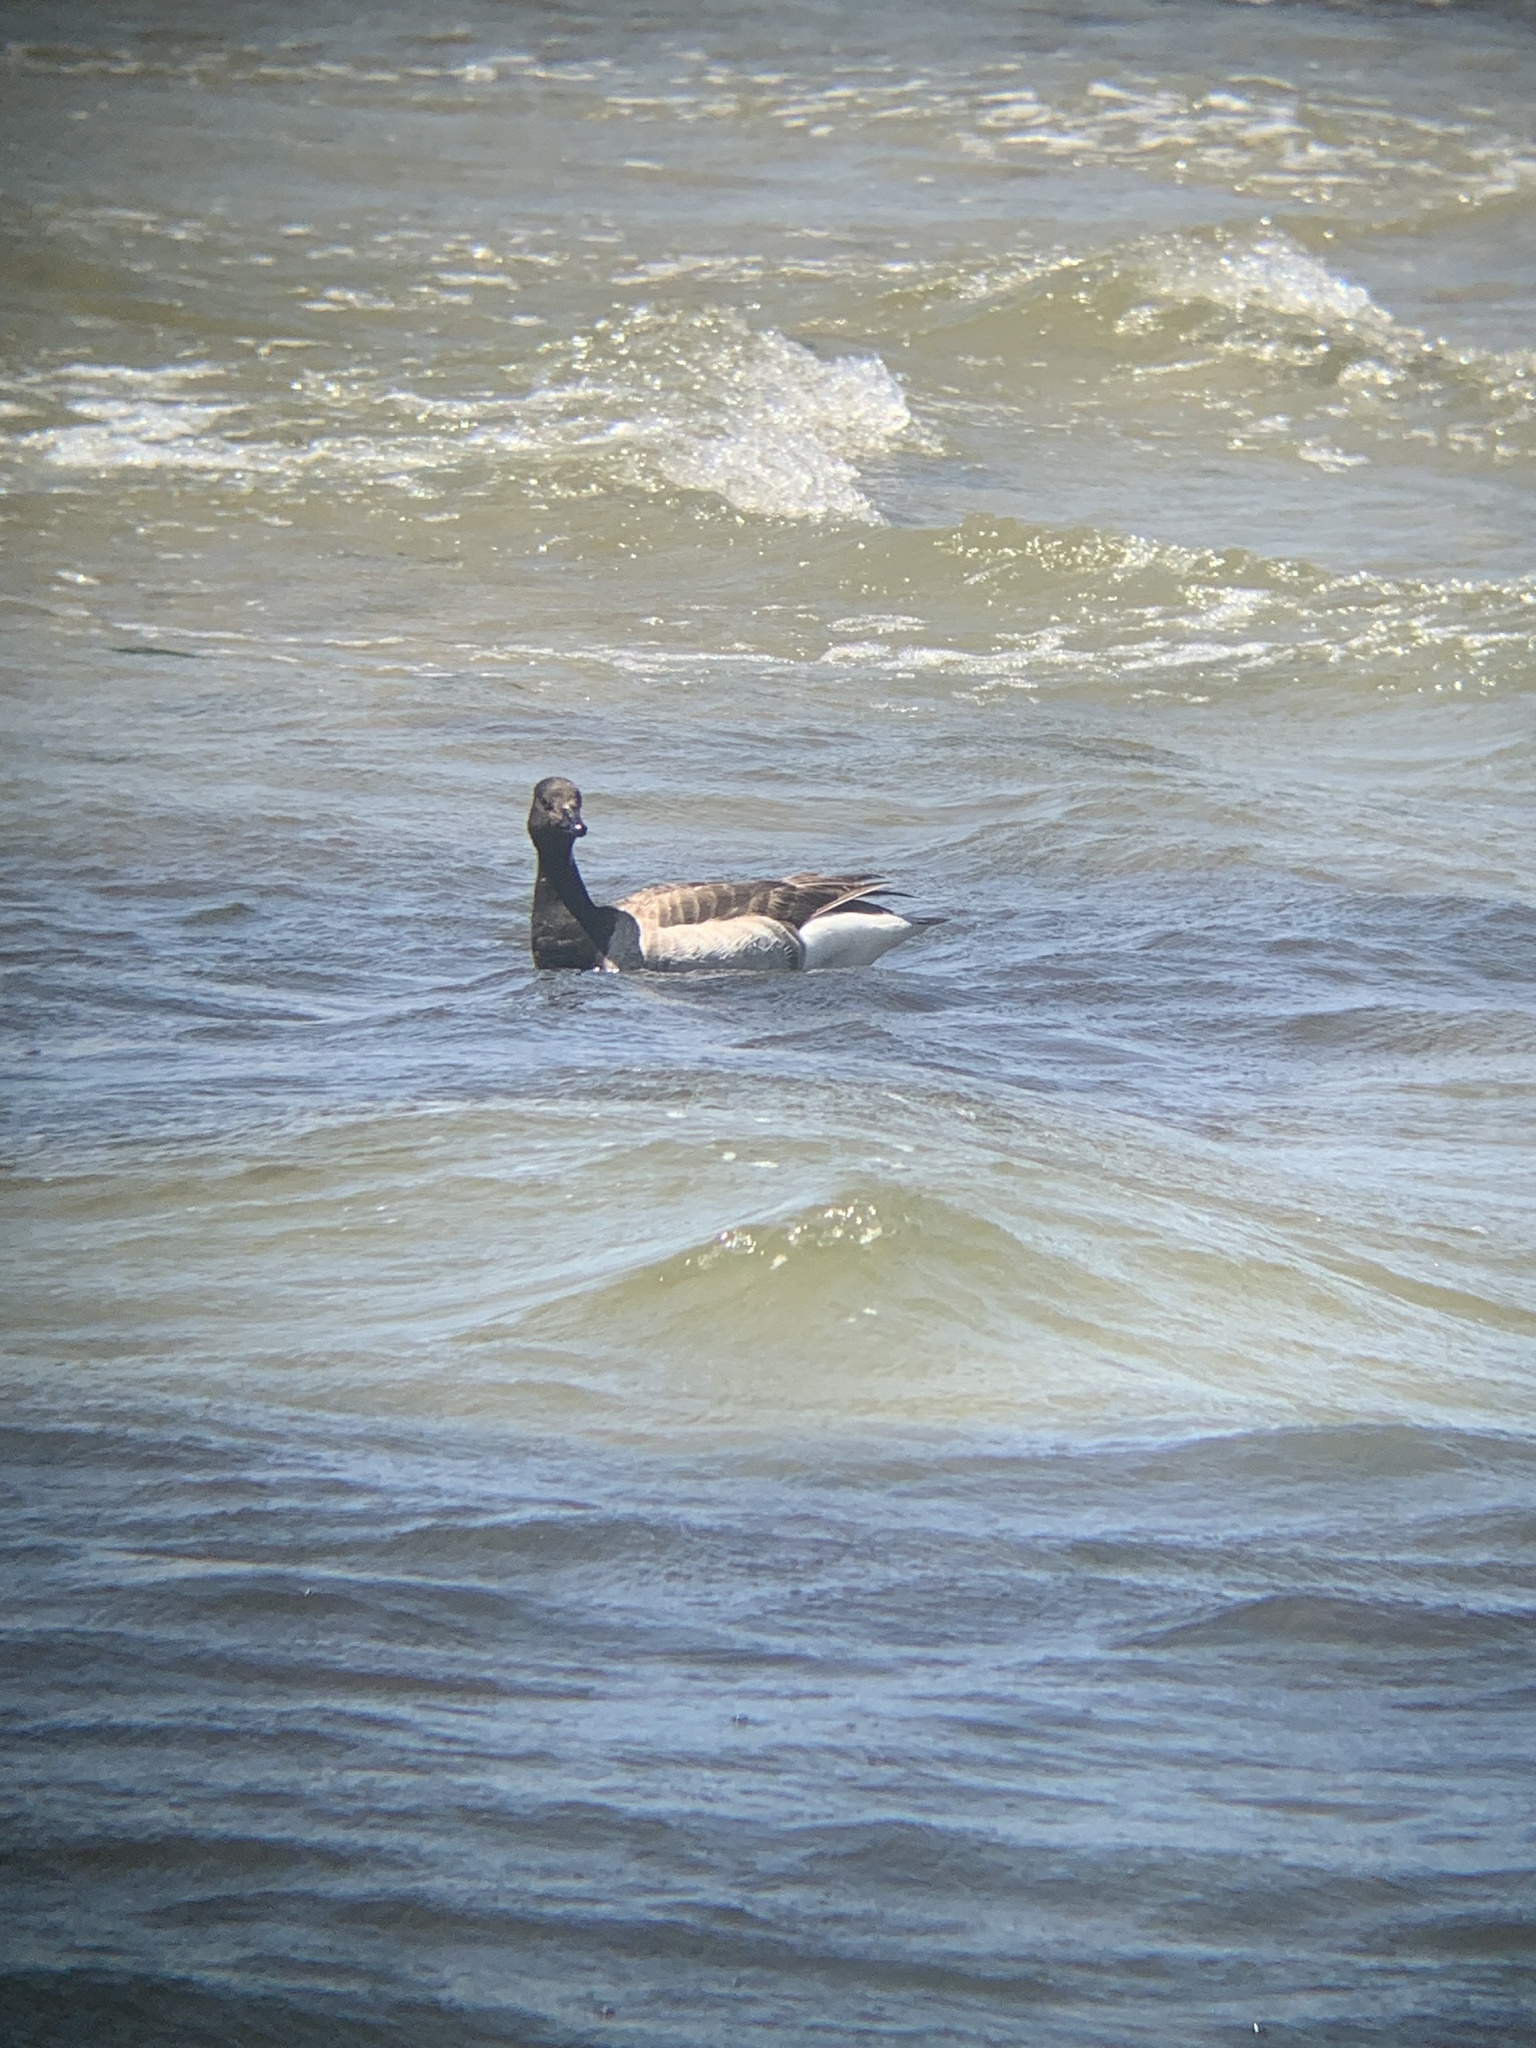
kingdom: Animalia
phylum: Chordata
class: Aves
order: Anseriformes
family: Anatidae
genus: Branta
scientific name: Branta bernicla
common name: Brant goose
